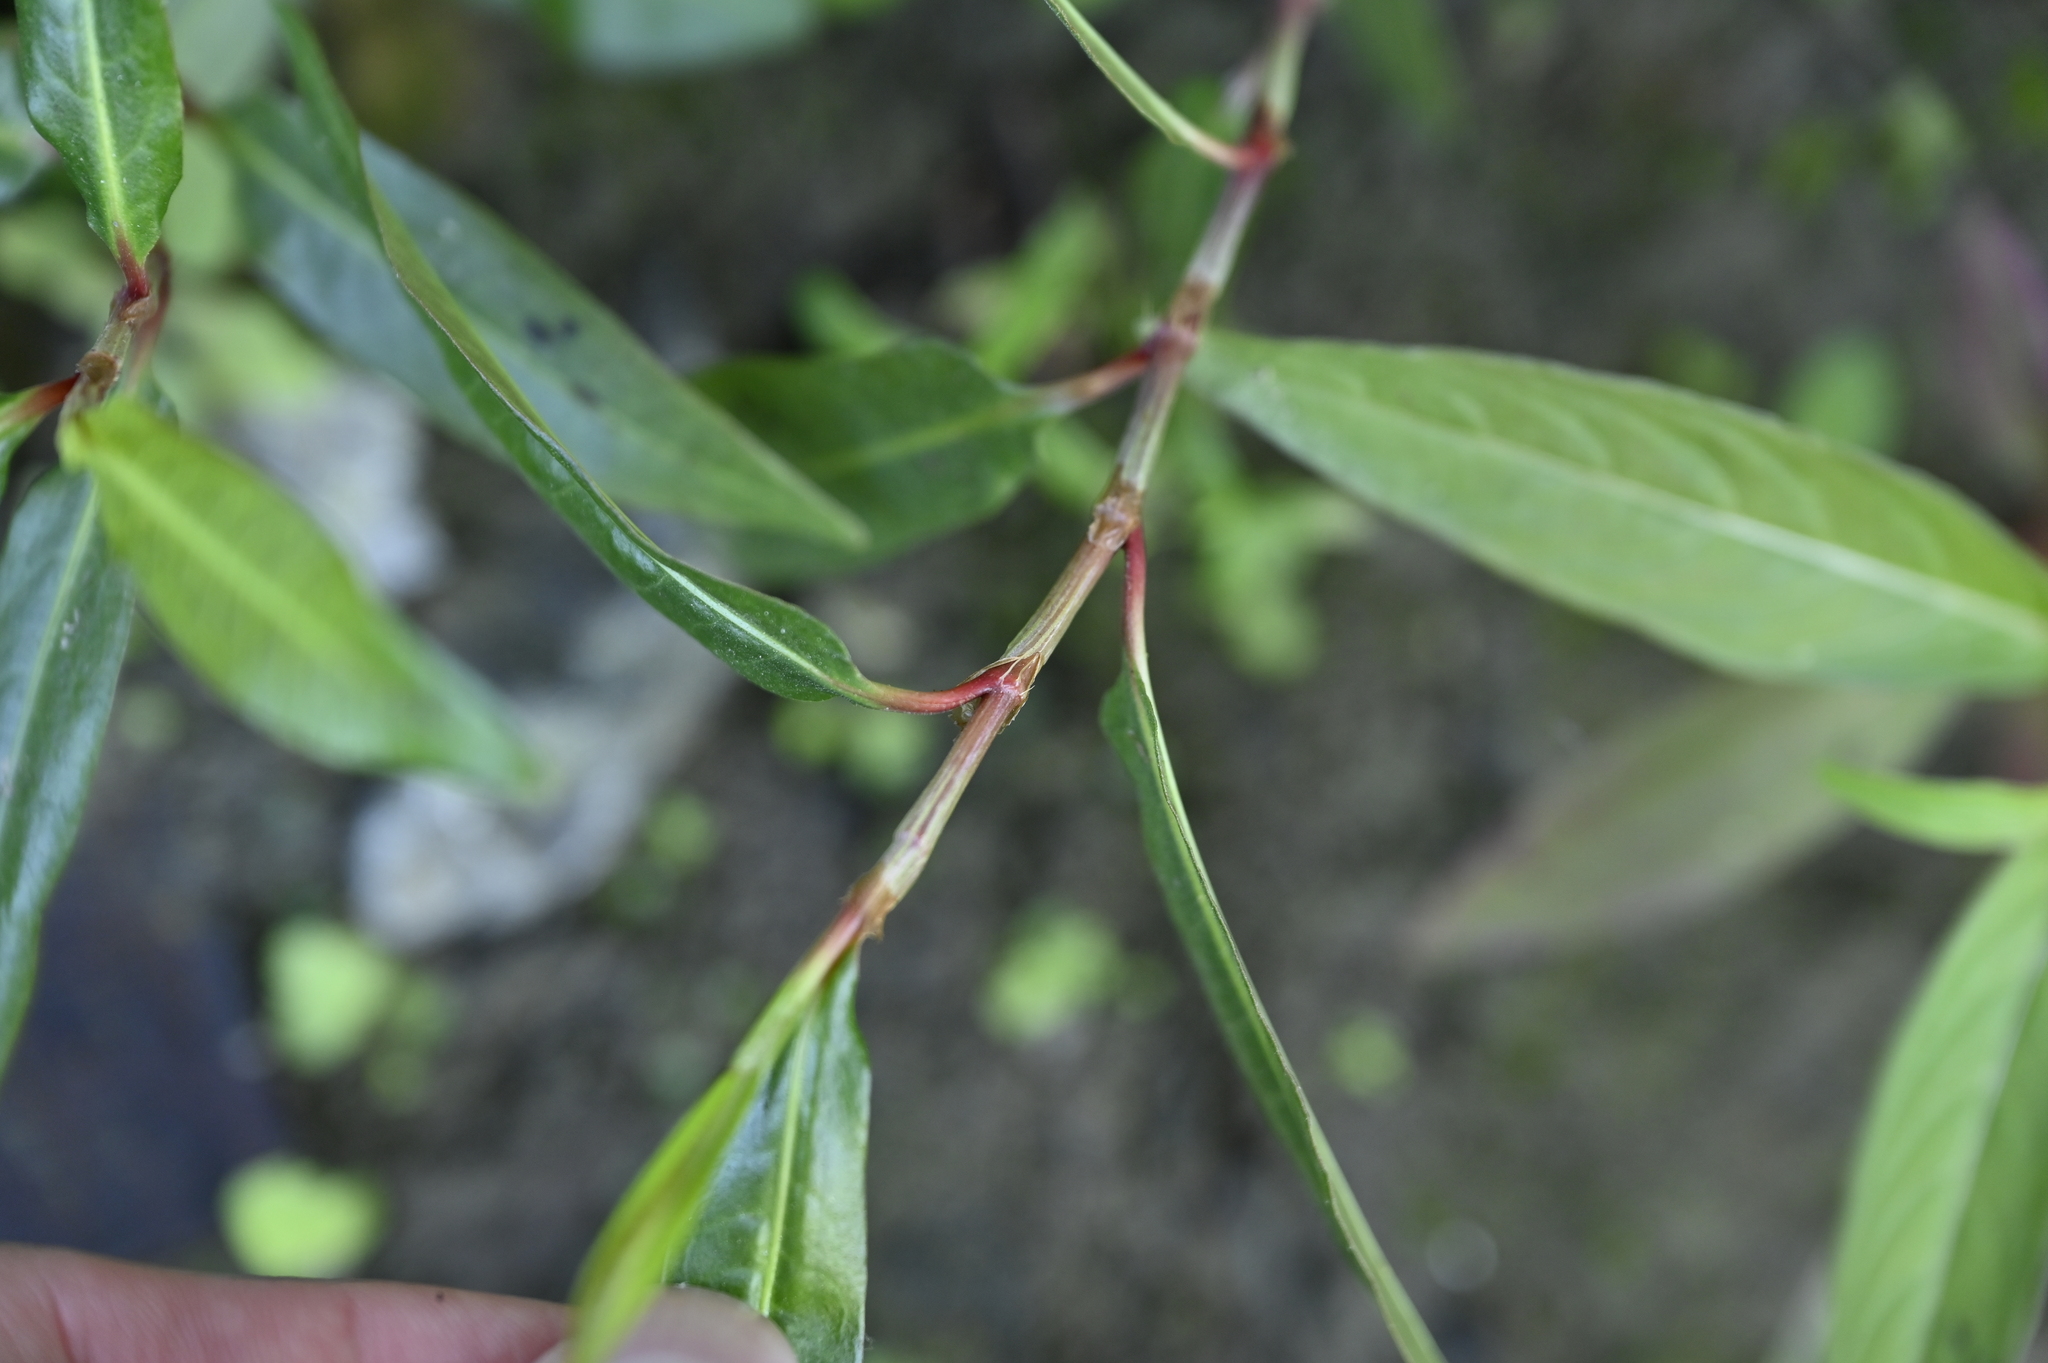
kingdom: Plantae
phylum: Tracheophyta
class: Magnoliopsida
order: Caryophyllales
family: Polygonaceae
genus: Persicaria
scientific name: Persicaria dichotoma
